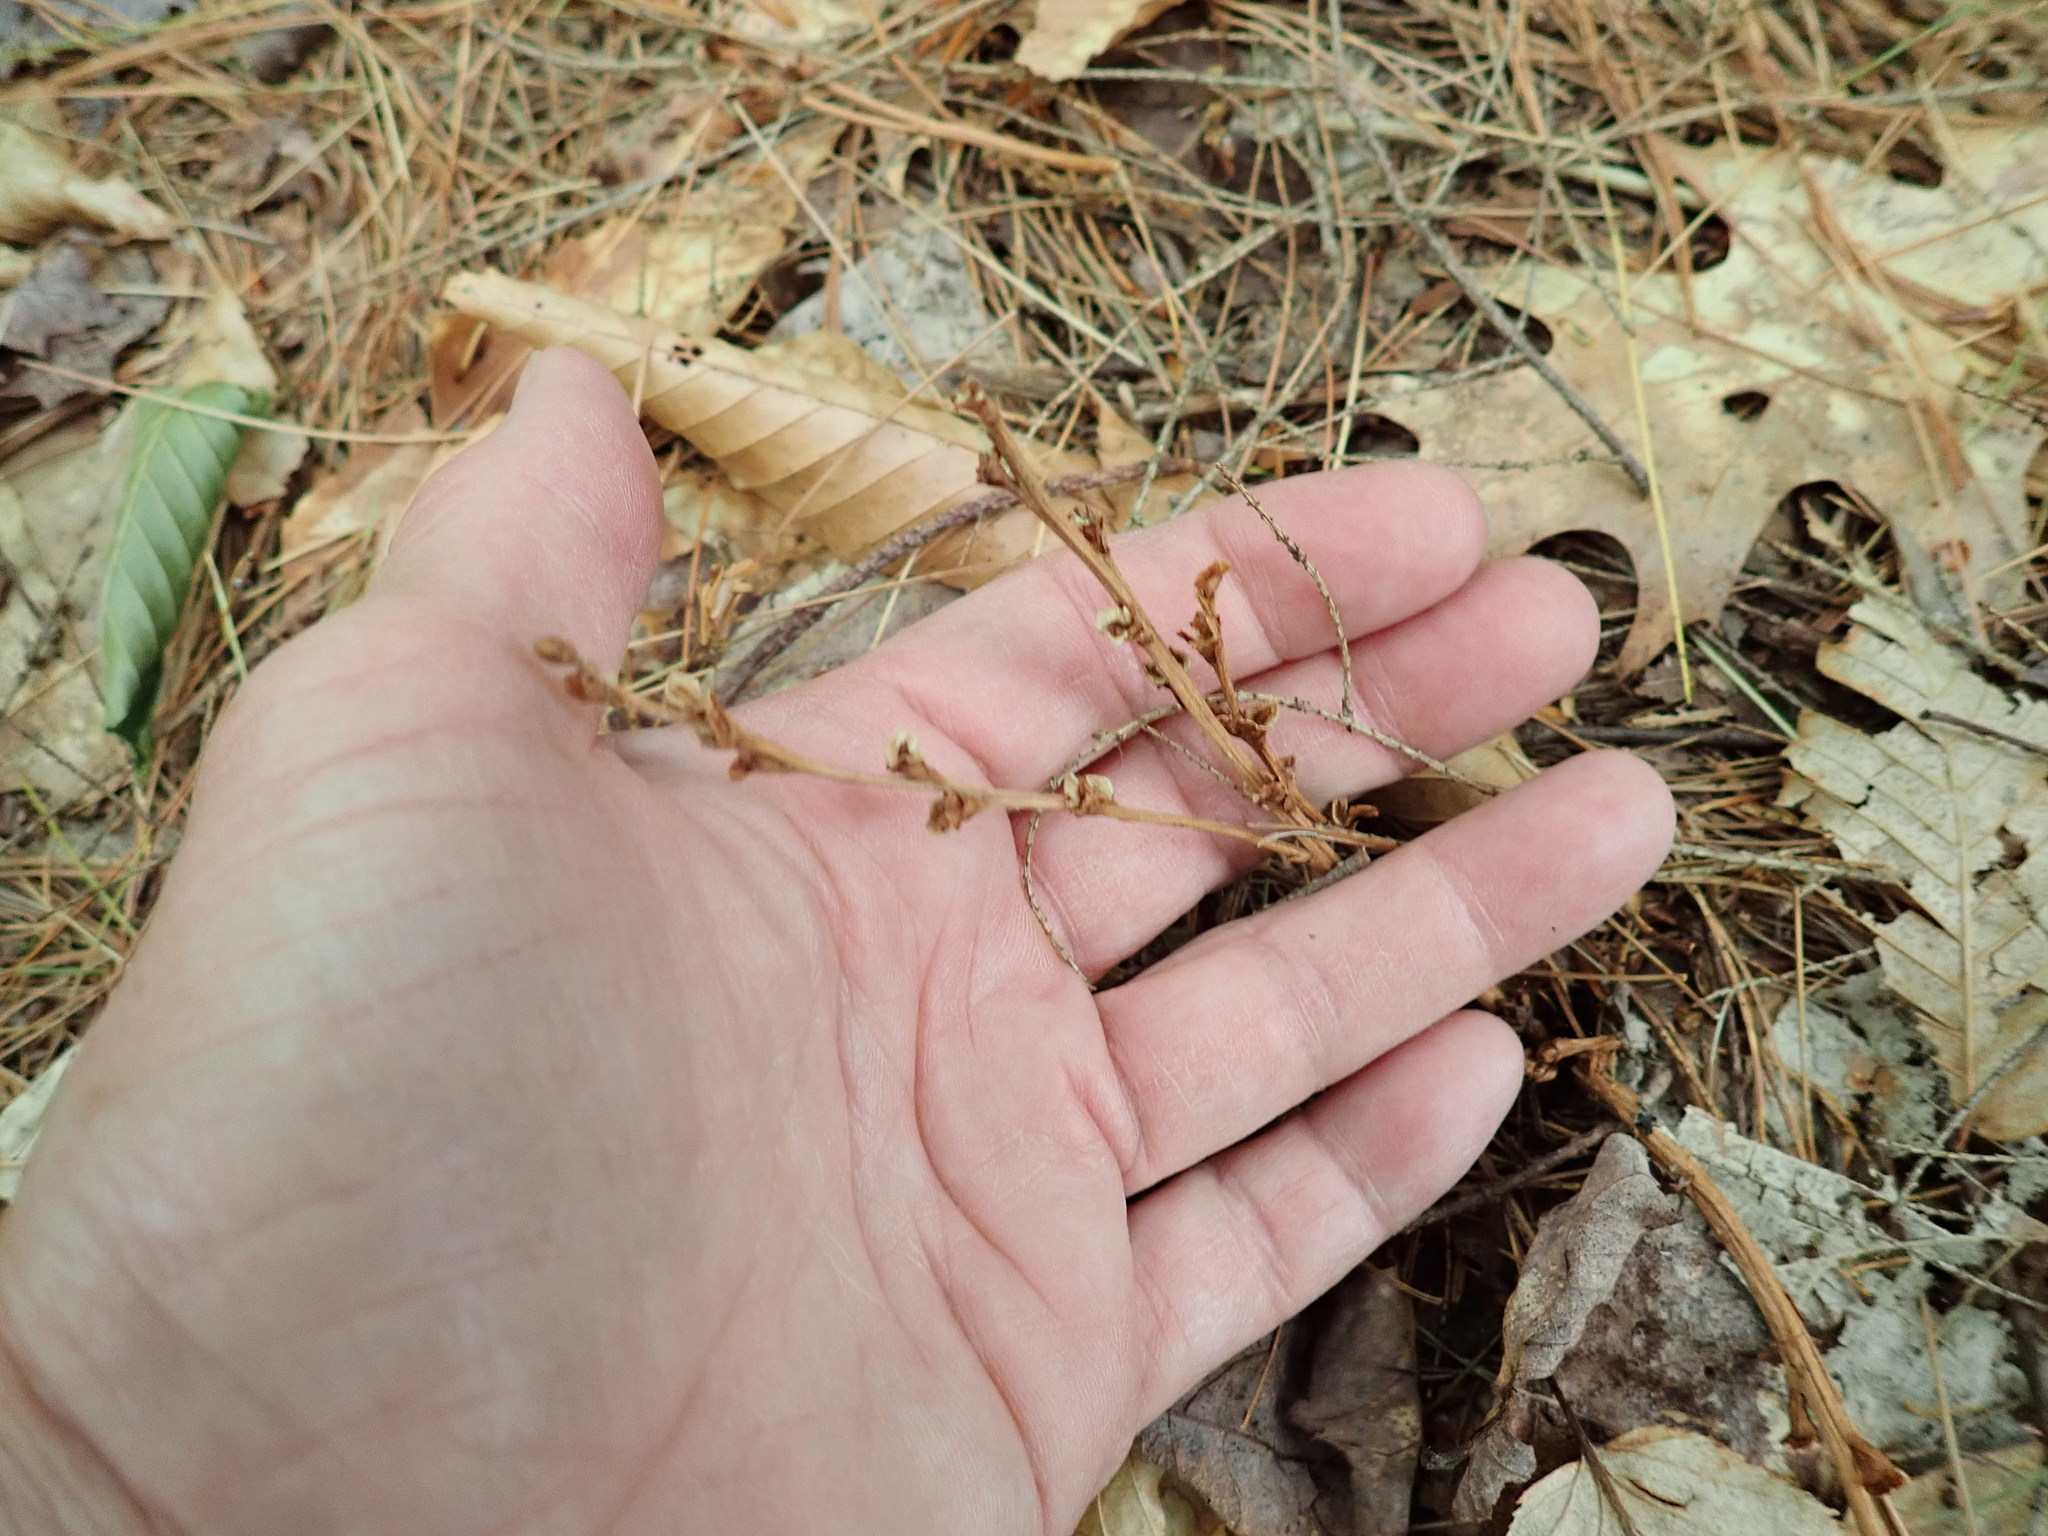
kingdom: Plantae
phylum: Tracheophyta
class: Magnoliopsida
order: Lamiales
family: Orobanchaceae
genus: Epifagus
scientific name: Epifagus virginiana
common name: Beechdrops
